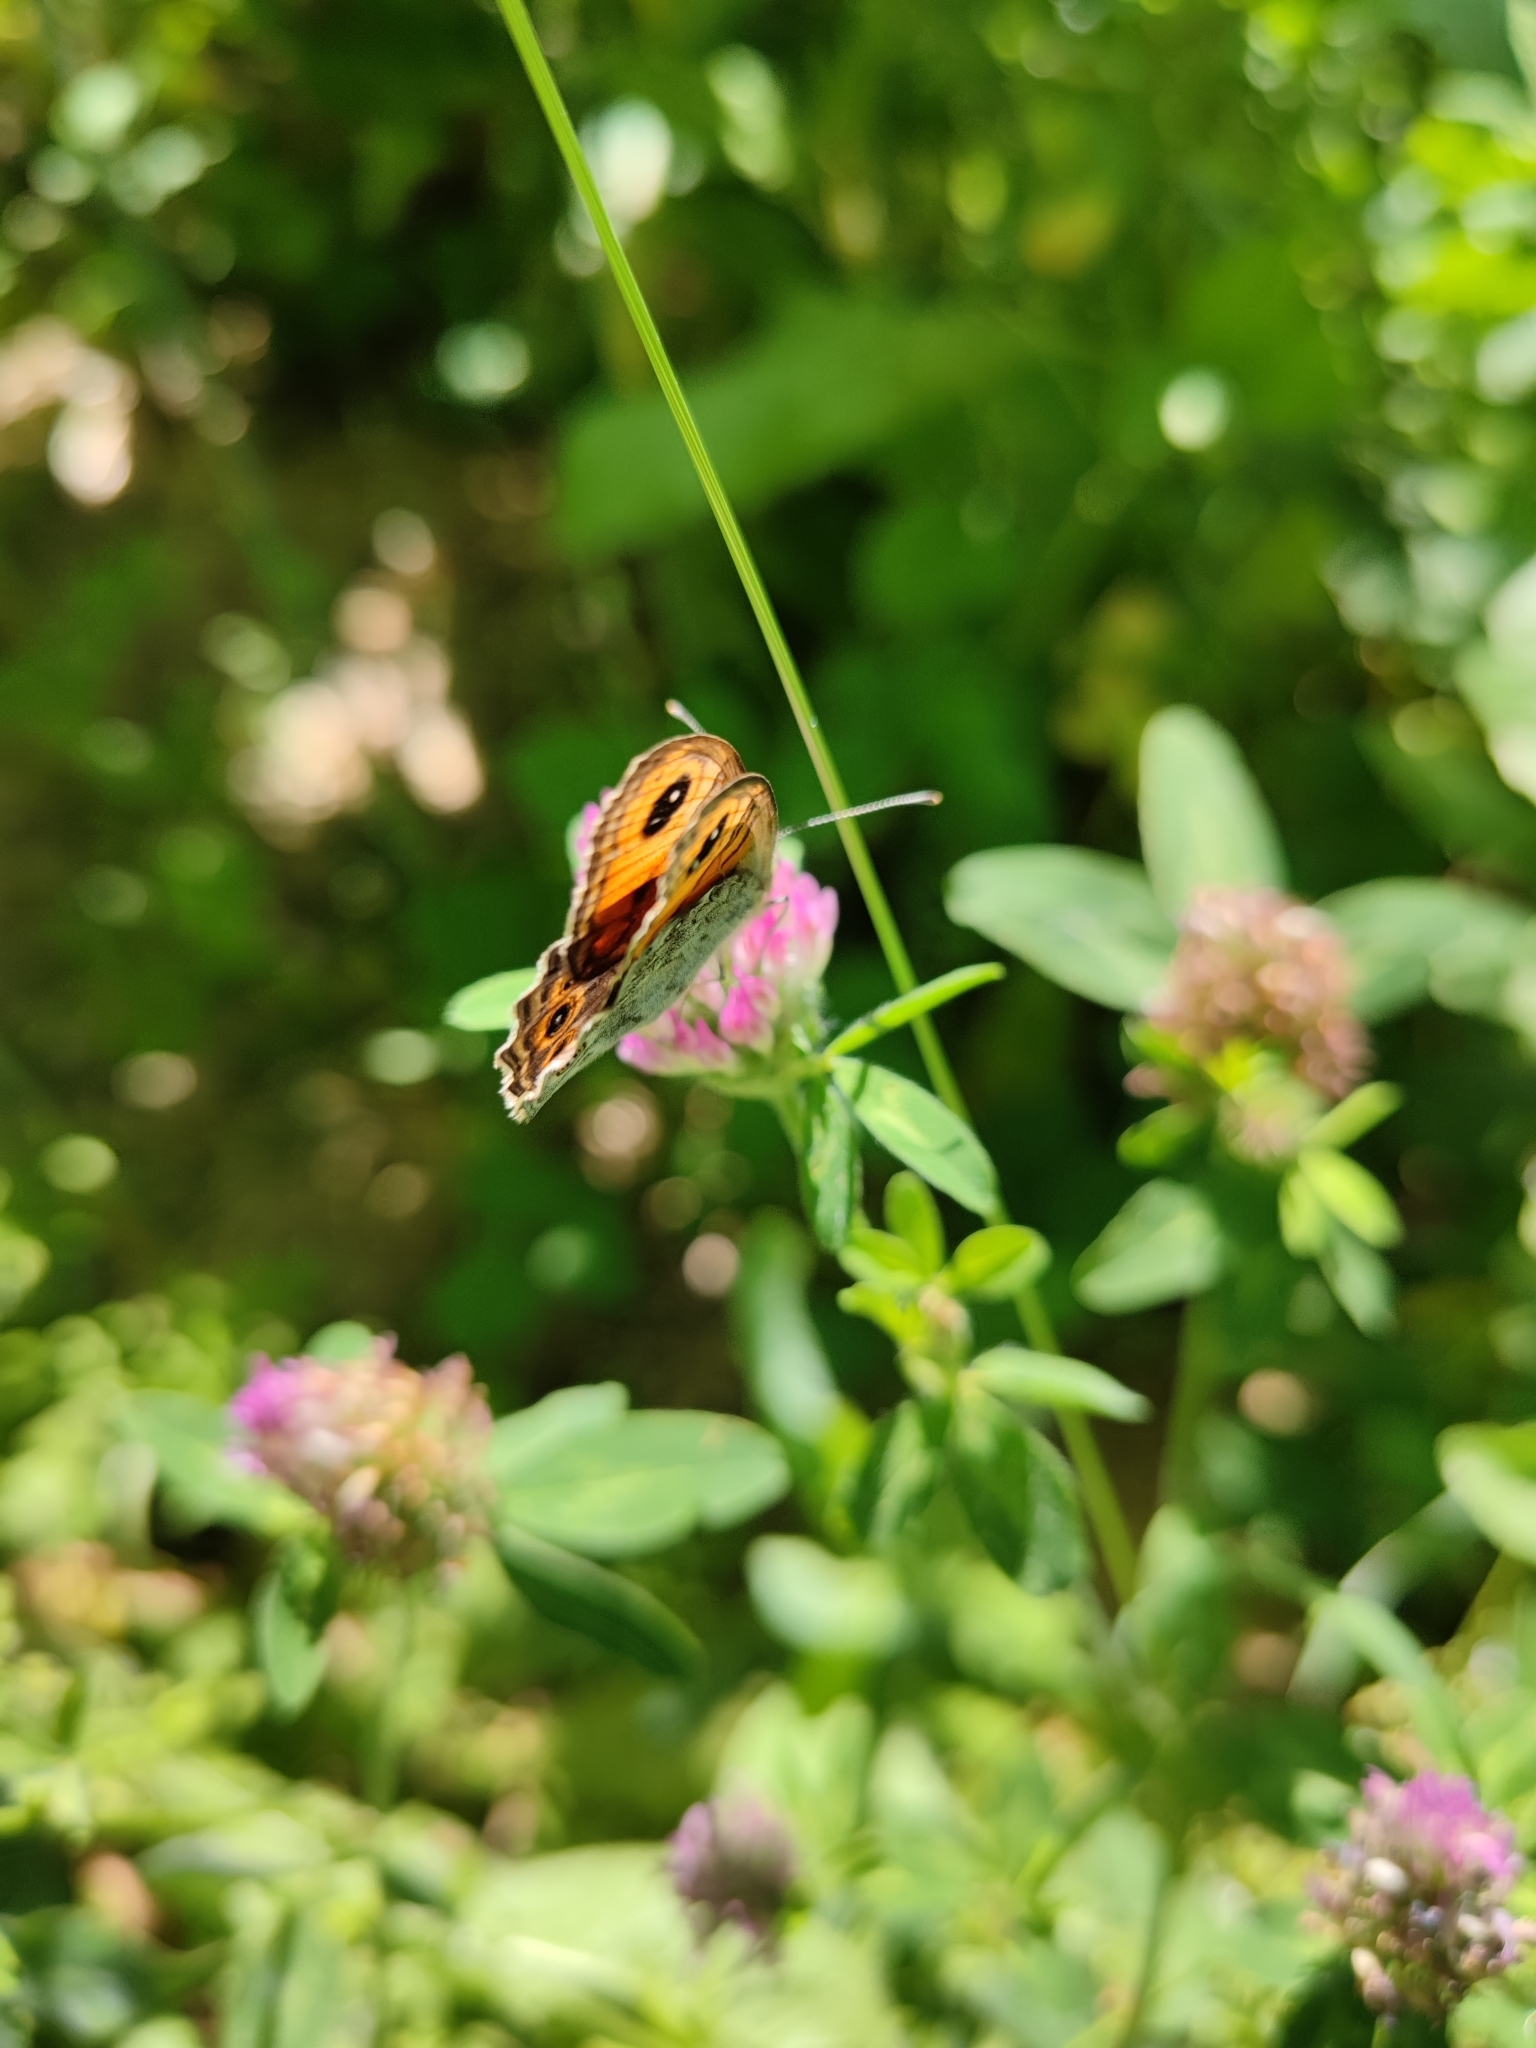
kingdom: Animalia
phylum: Arthropoda
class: Insecta
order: Lepidoptera
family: Nymphalidae
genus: Pararge
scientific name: Pararge Lasiommata maera
